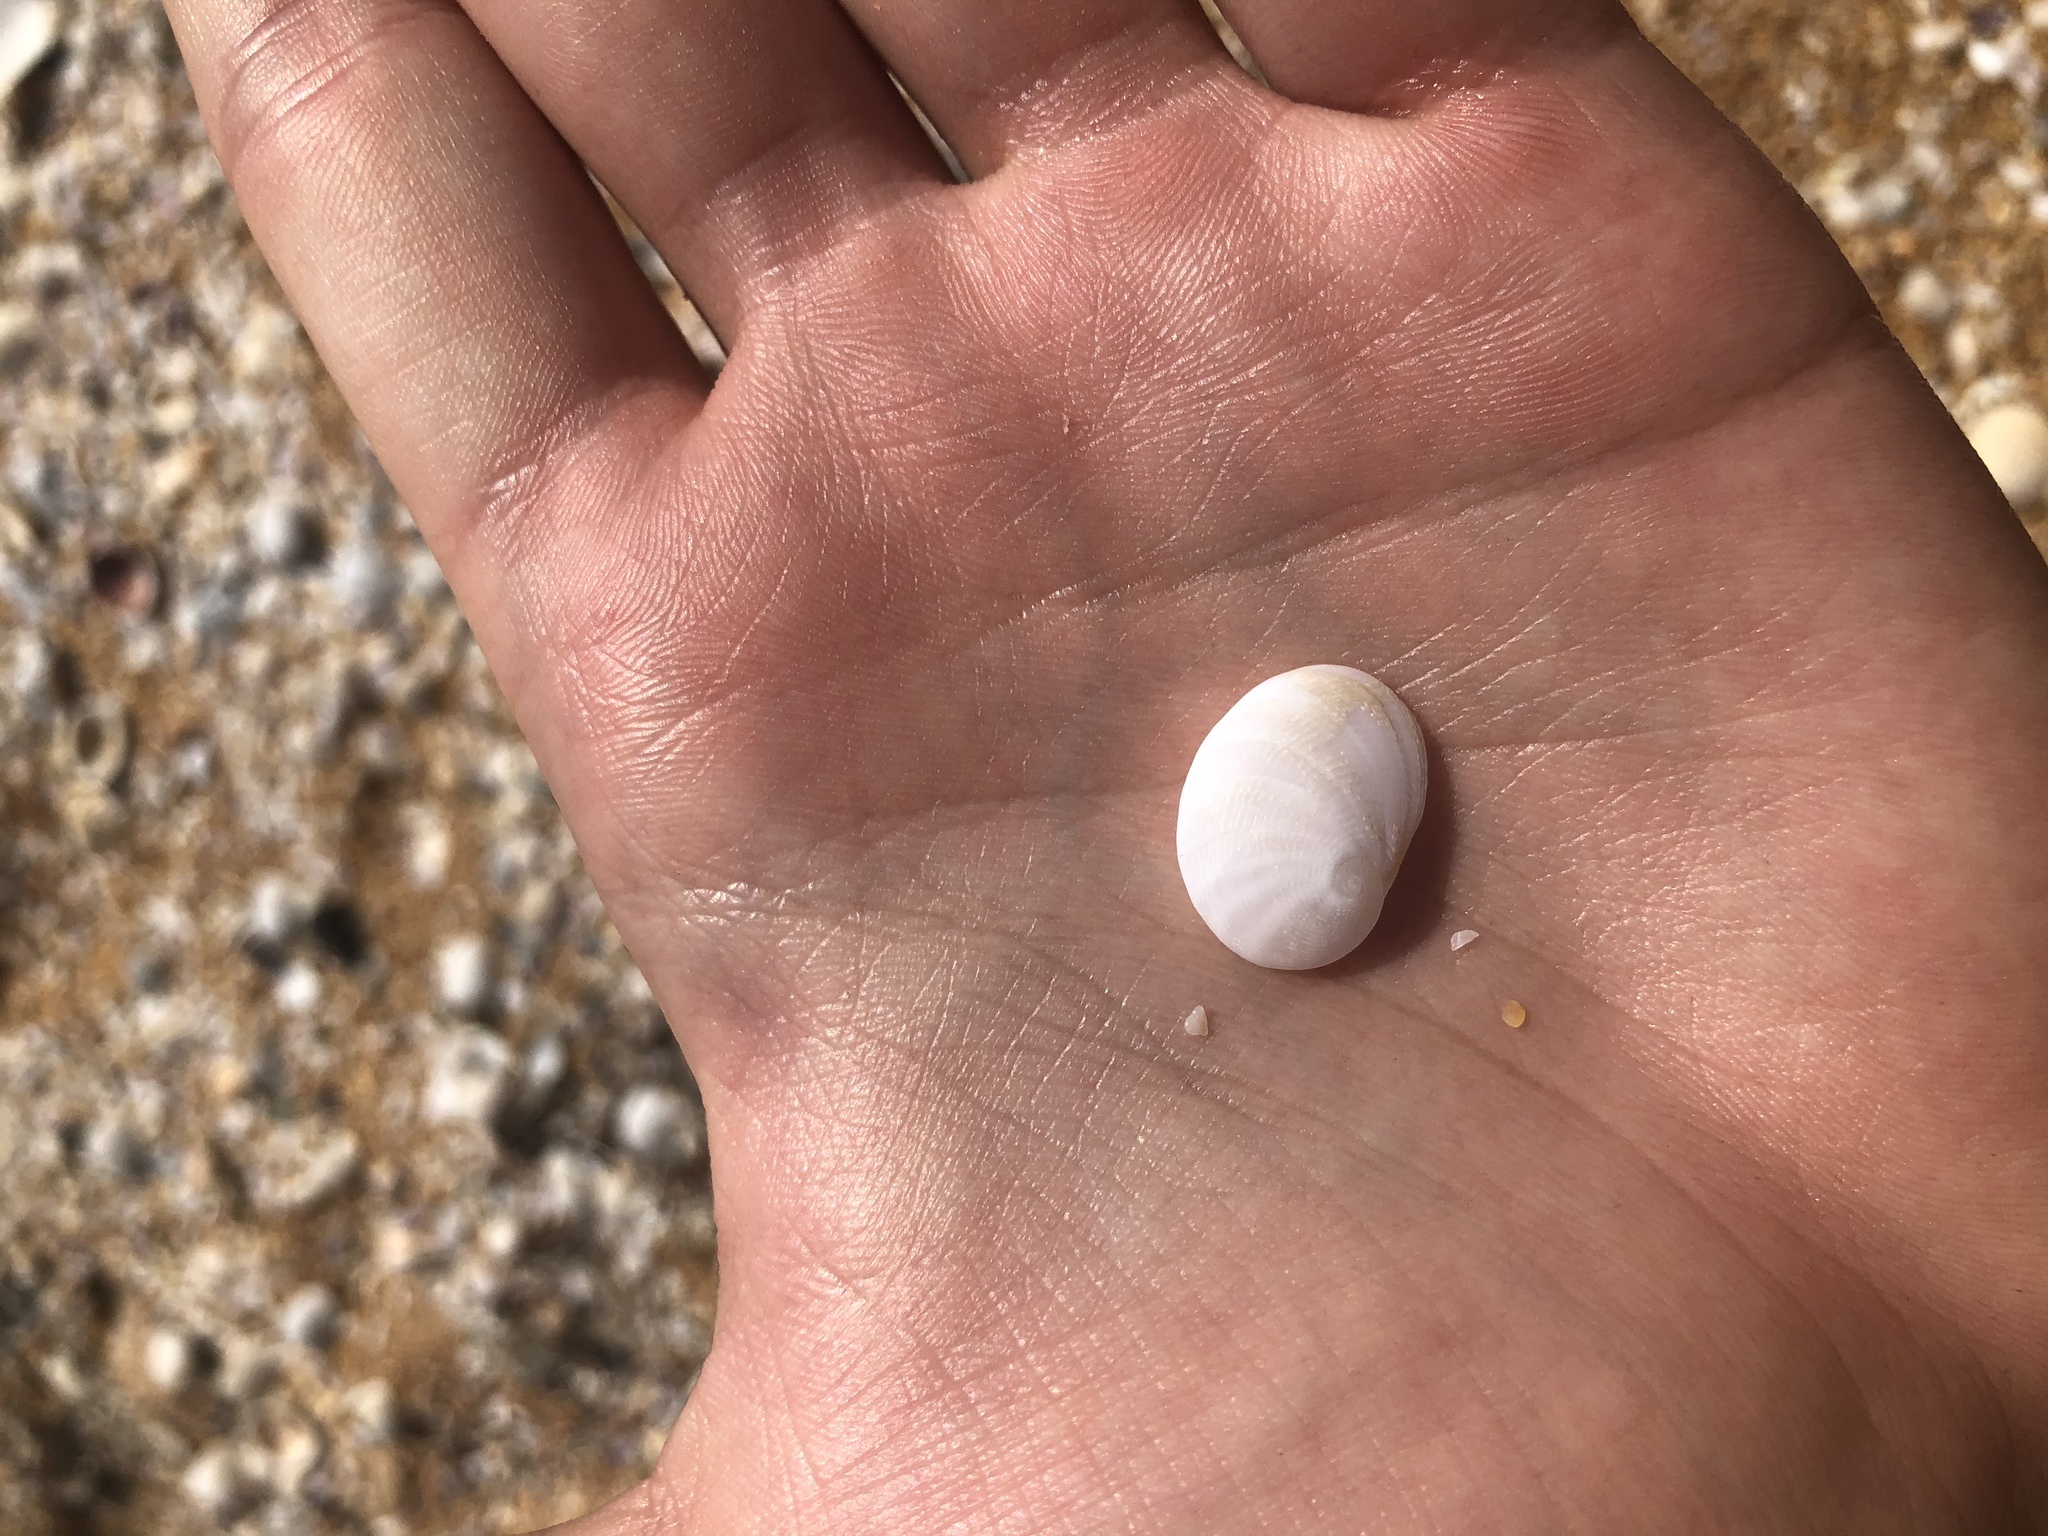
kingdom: Animalia
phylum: Mollusca
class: Gastropoda
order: Littorinimorpha
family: Naticidae
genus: Sinum
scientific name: Sinum perspectivum
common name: White baby ear
